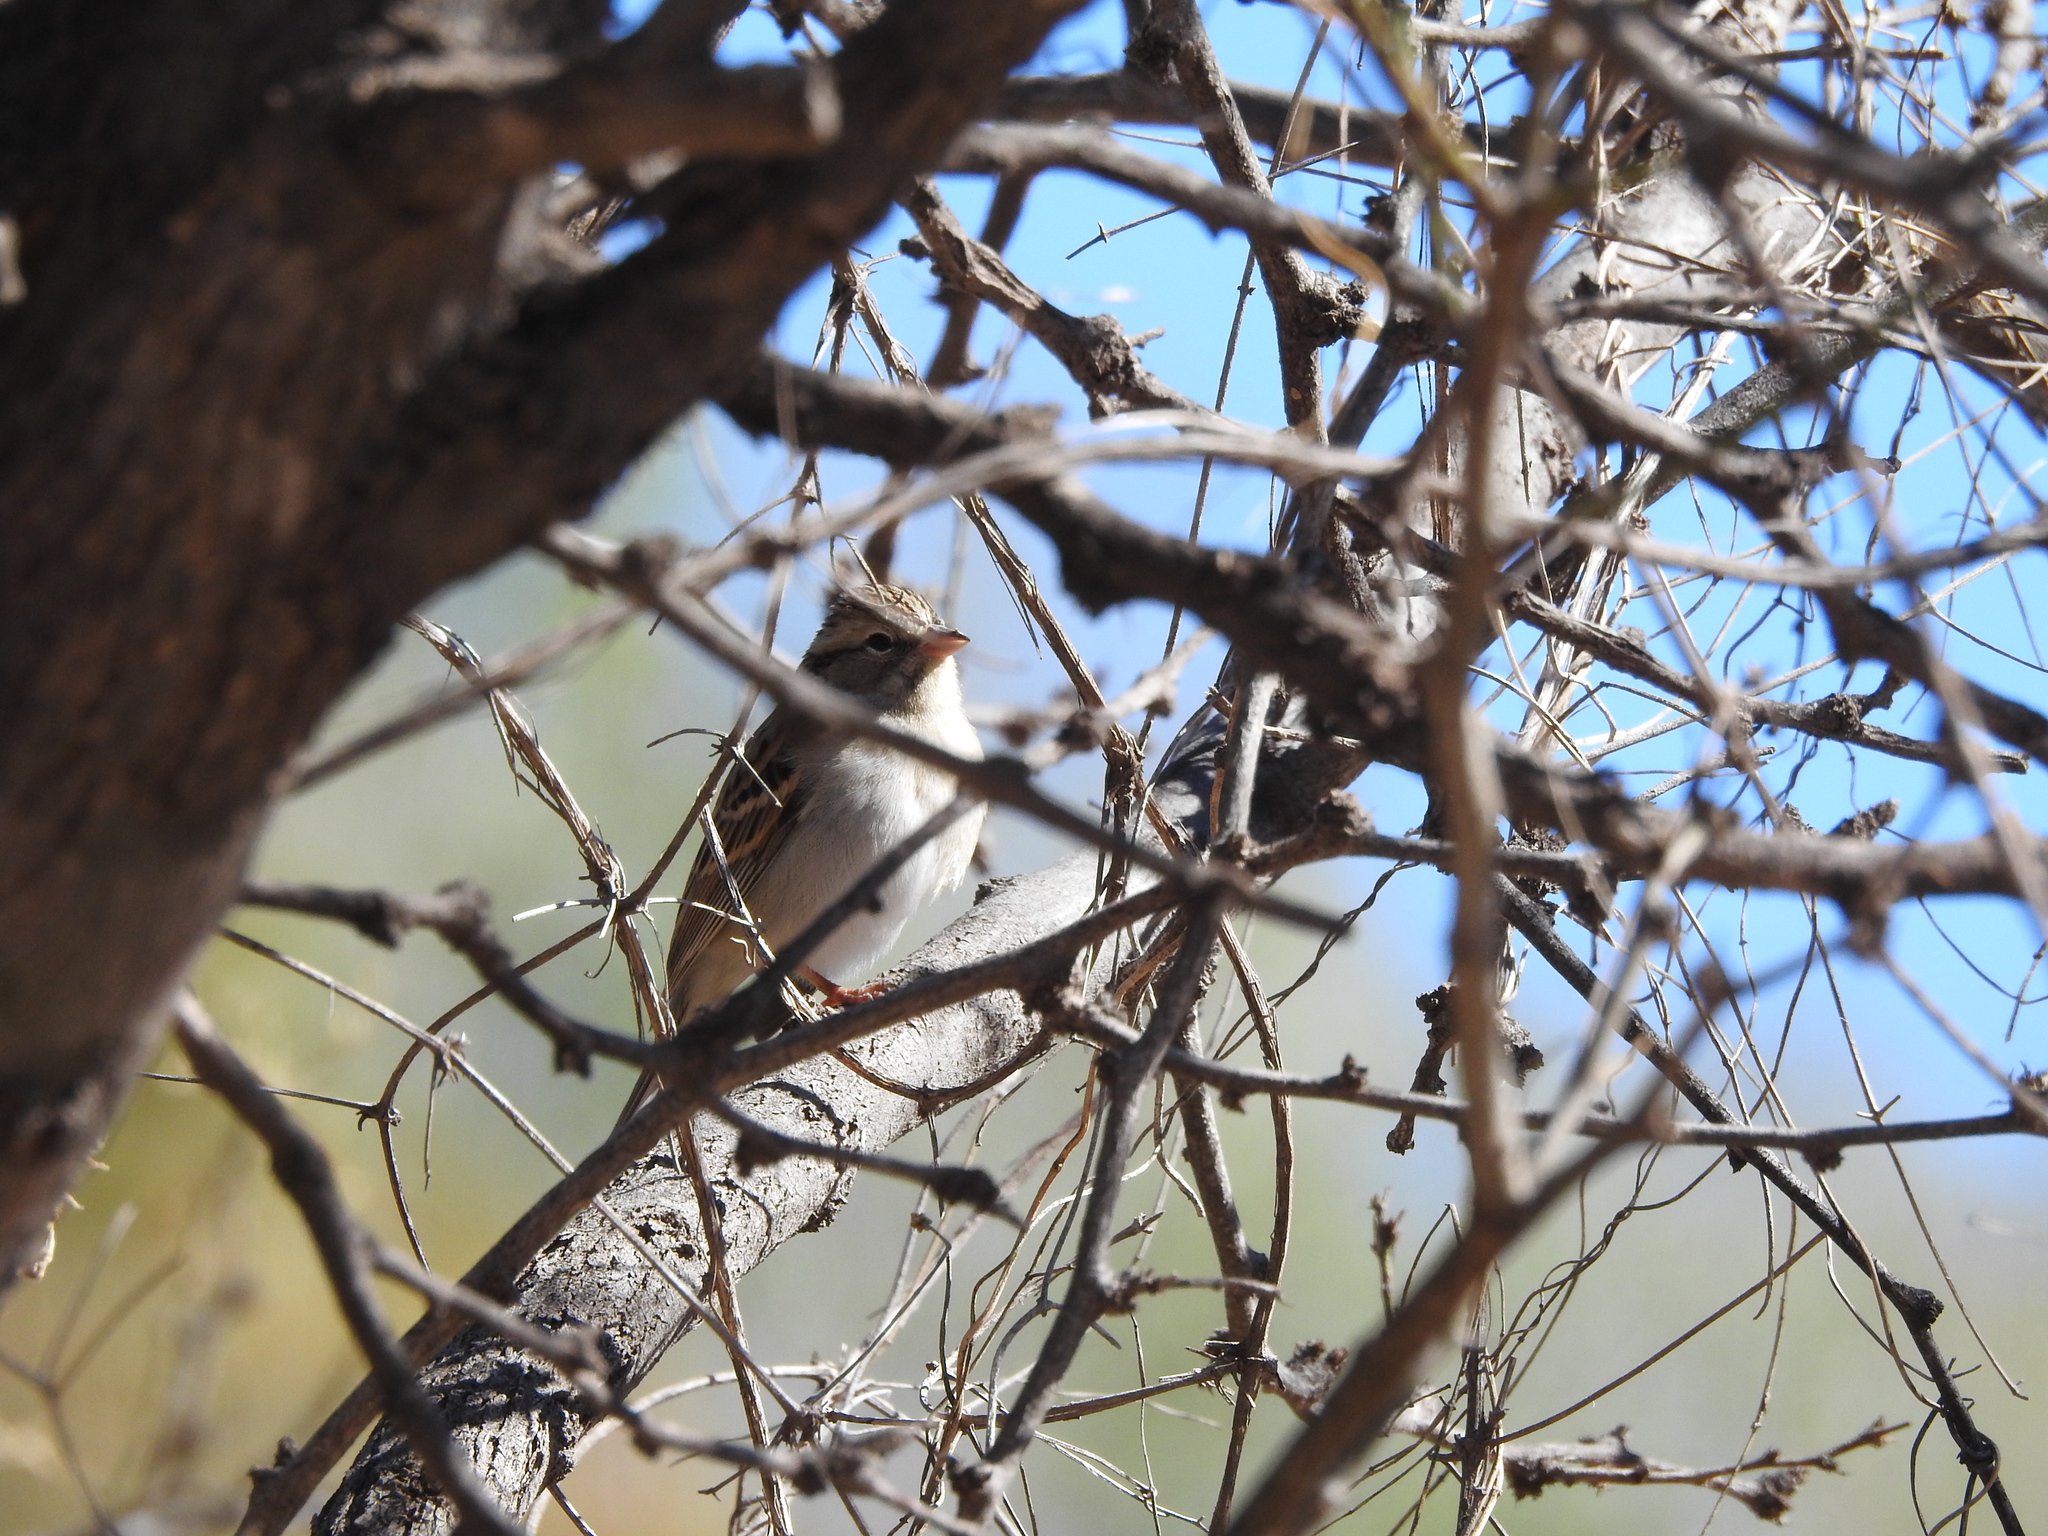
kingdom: Animalia
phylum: Chordata
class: Aves
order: Passeriformes
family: Passerellidae
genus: Spizella
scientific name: Spizella passerina
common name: Chipping sparrow
